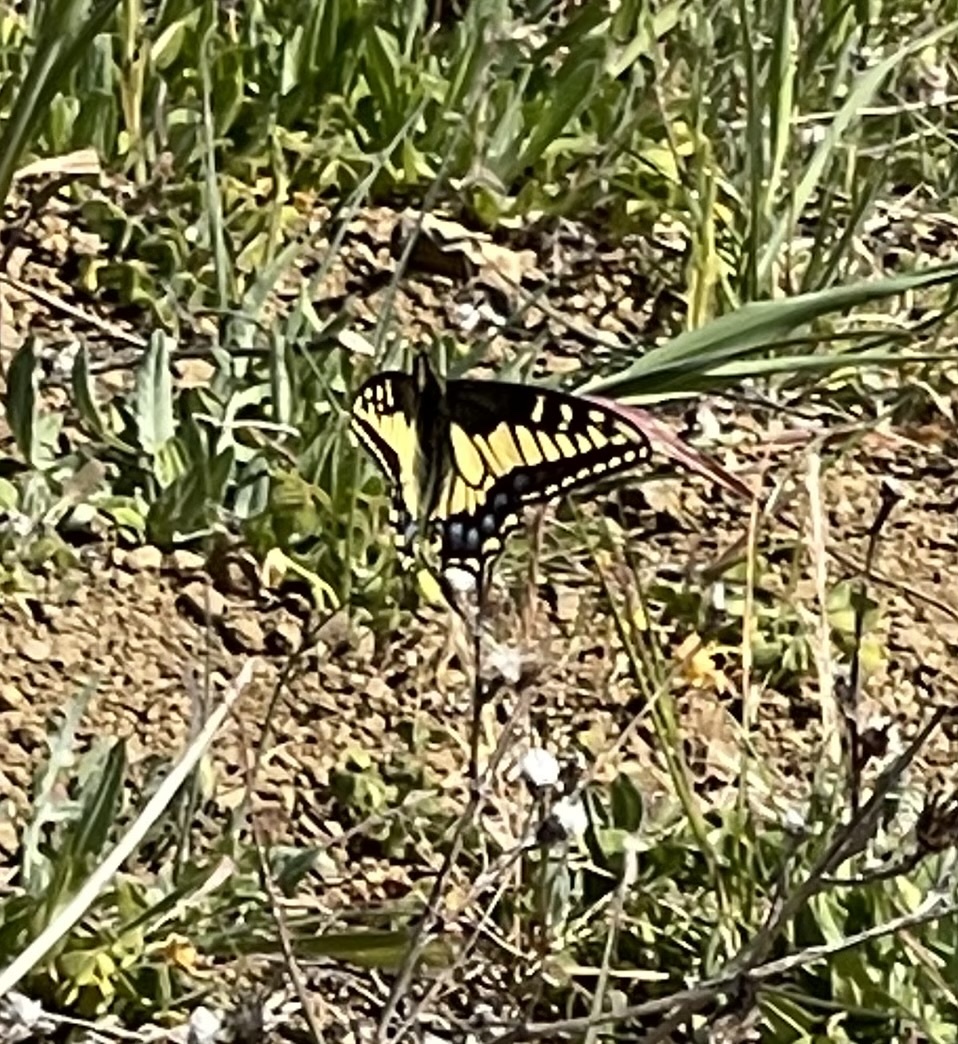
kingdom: Animalia
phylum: Arthropoda
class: Insecta
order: Lepidoptera
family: Papilionidae
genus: Papilio
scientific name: Papilio zelicaon
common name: Anise swallowtail
